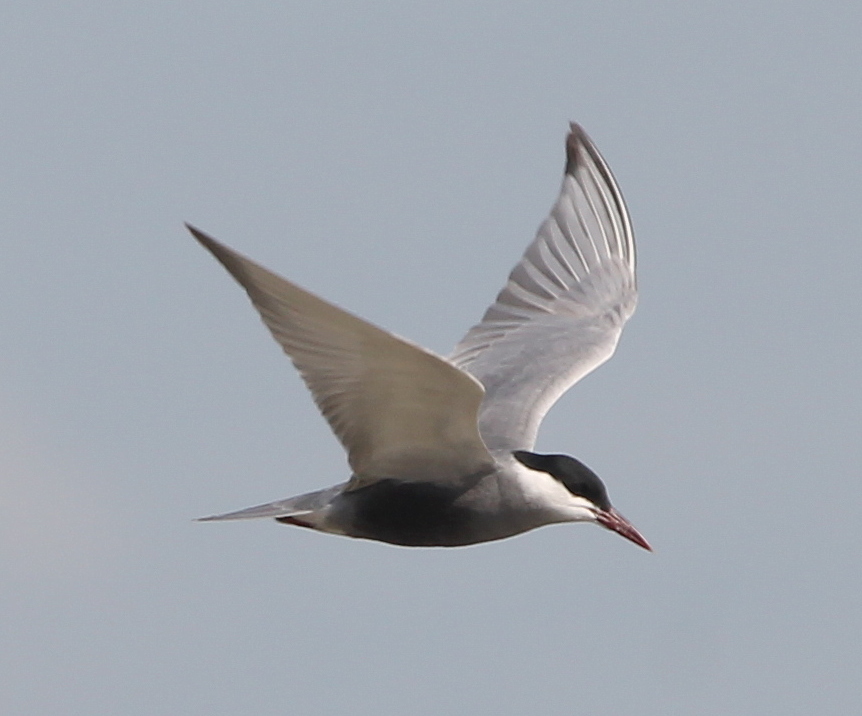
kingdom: Animalia
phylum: Chordata
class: Aves
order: Charadriiformes
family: Laridae
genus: Chlidonias
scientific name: Chlidonias hybrida
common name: Whiskered tern
